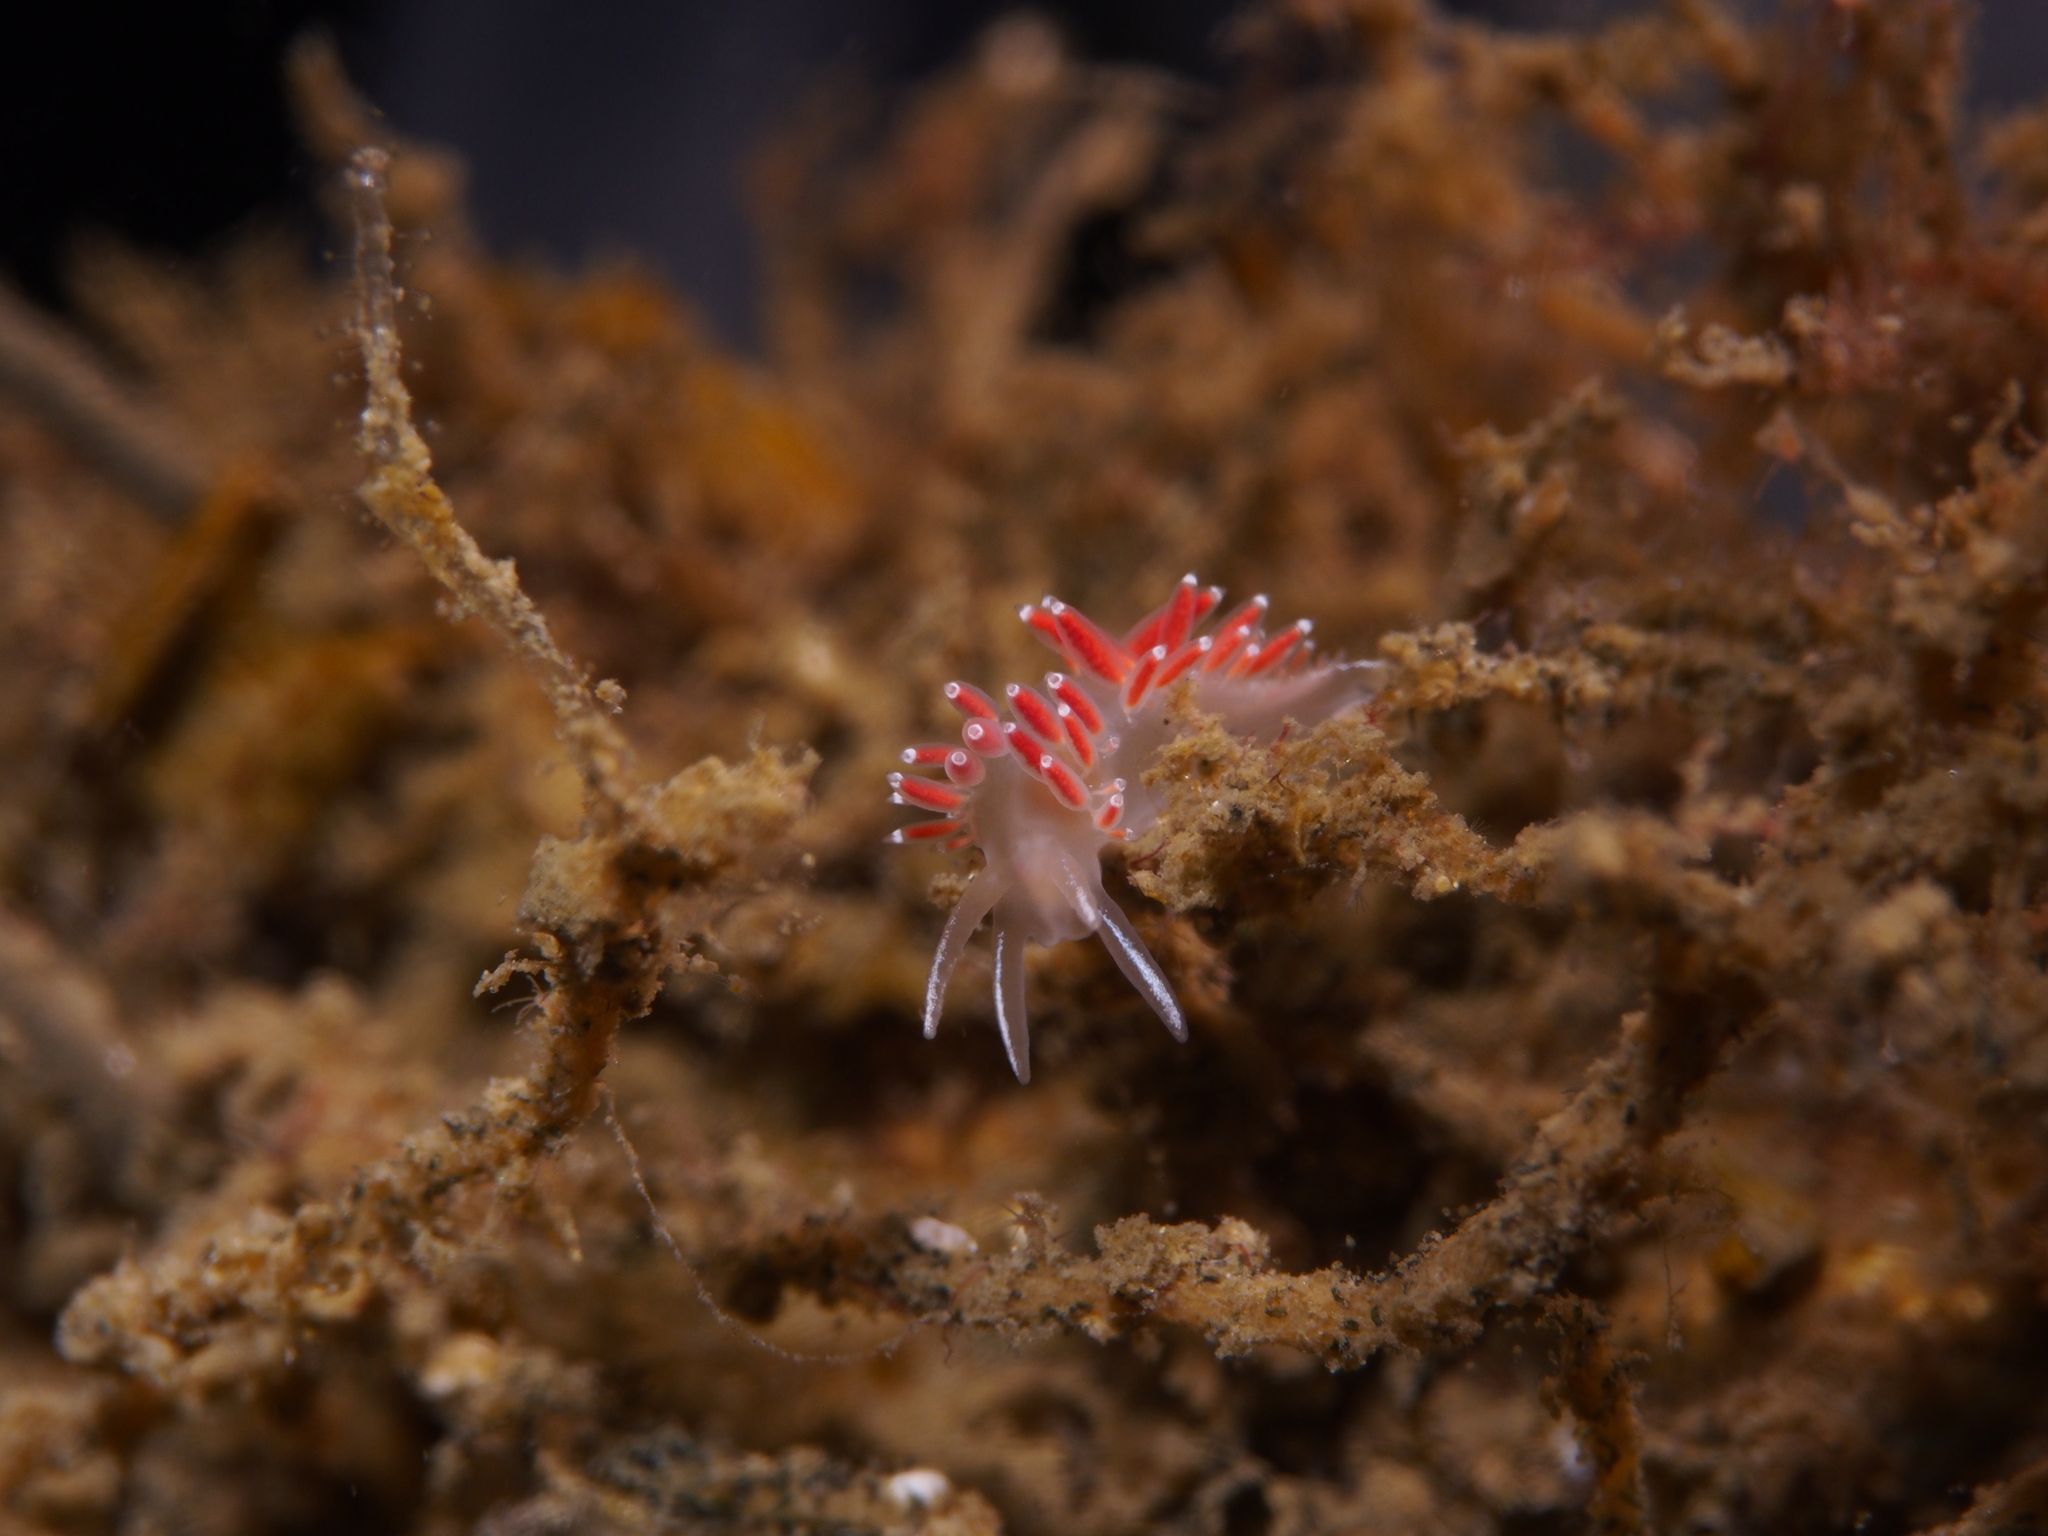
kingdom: Animalia
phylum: Mollusca
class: Gastropoda
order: Nudibranchia
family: Coryphellidae
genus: Coryphella
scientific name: Coryphella gracilis
